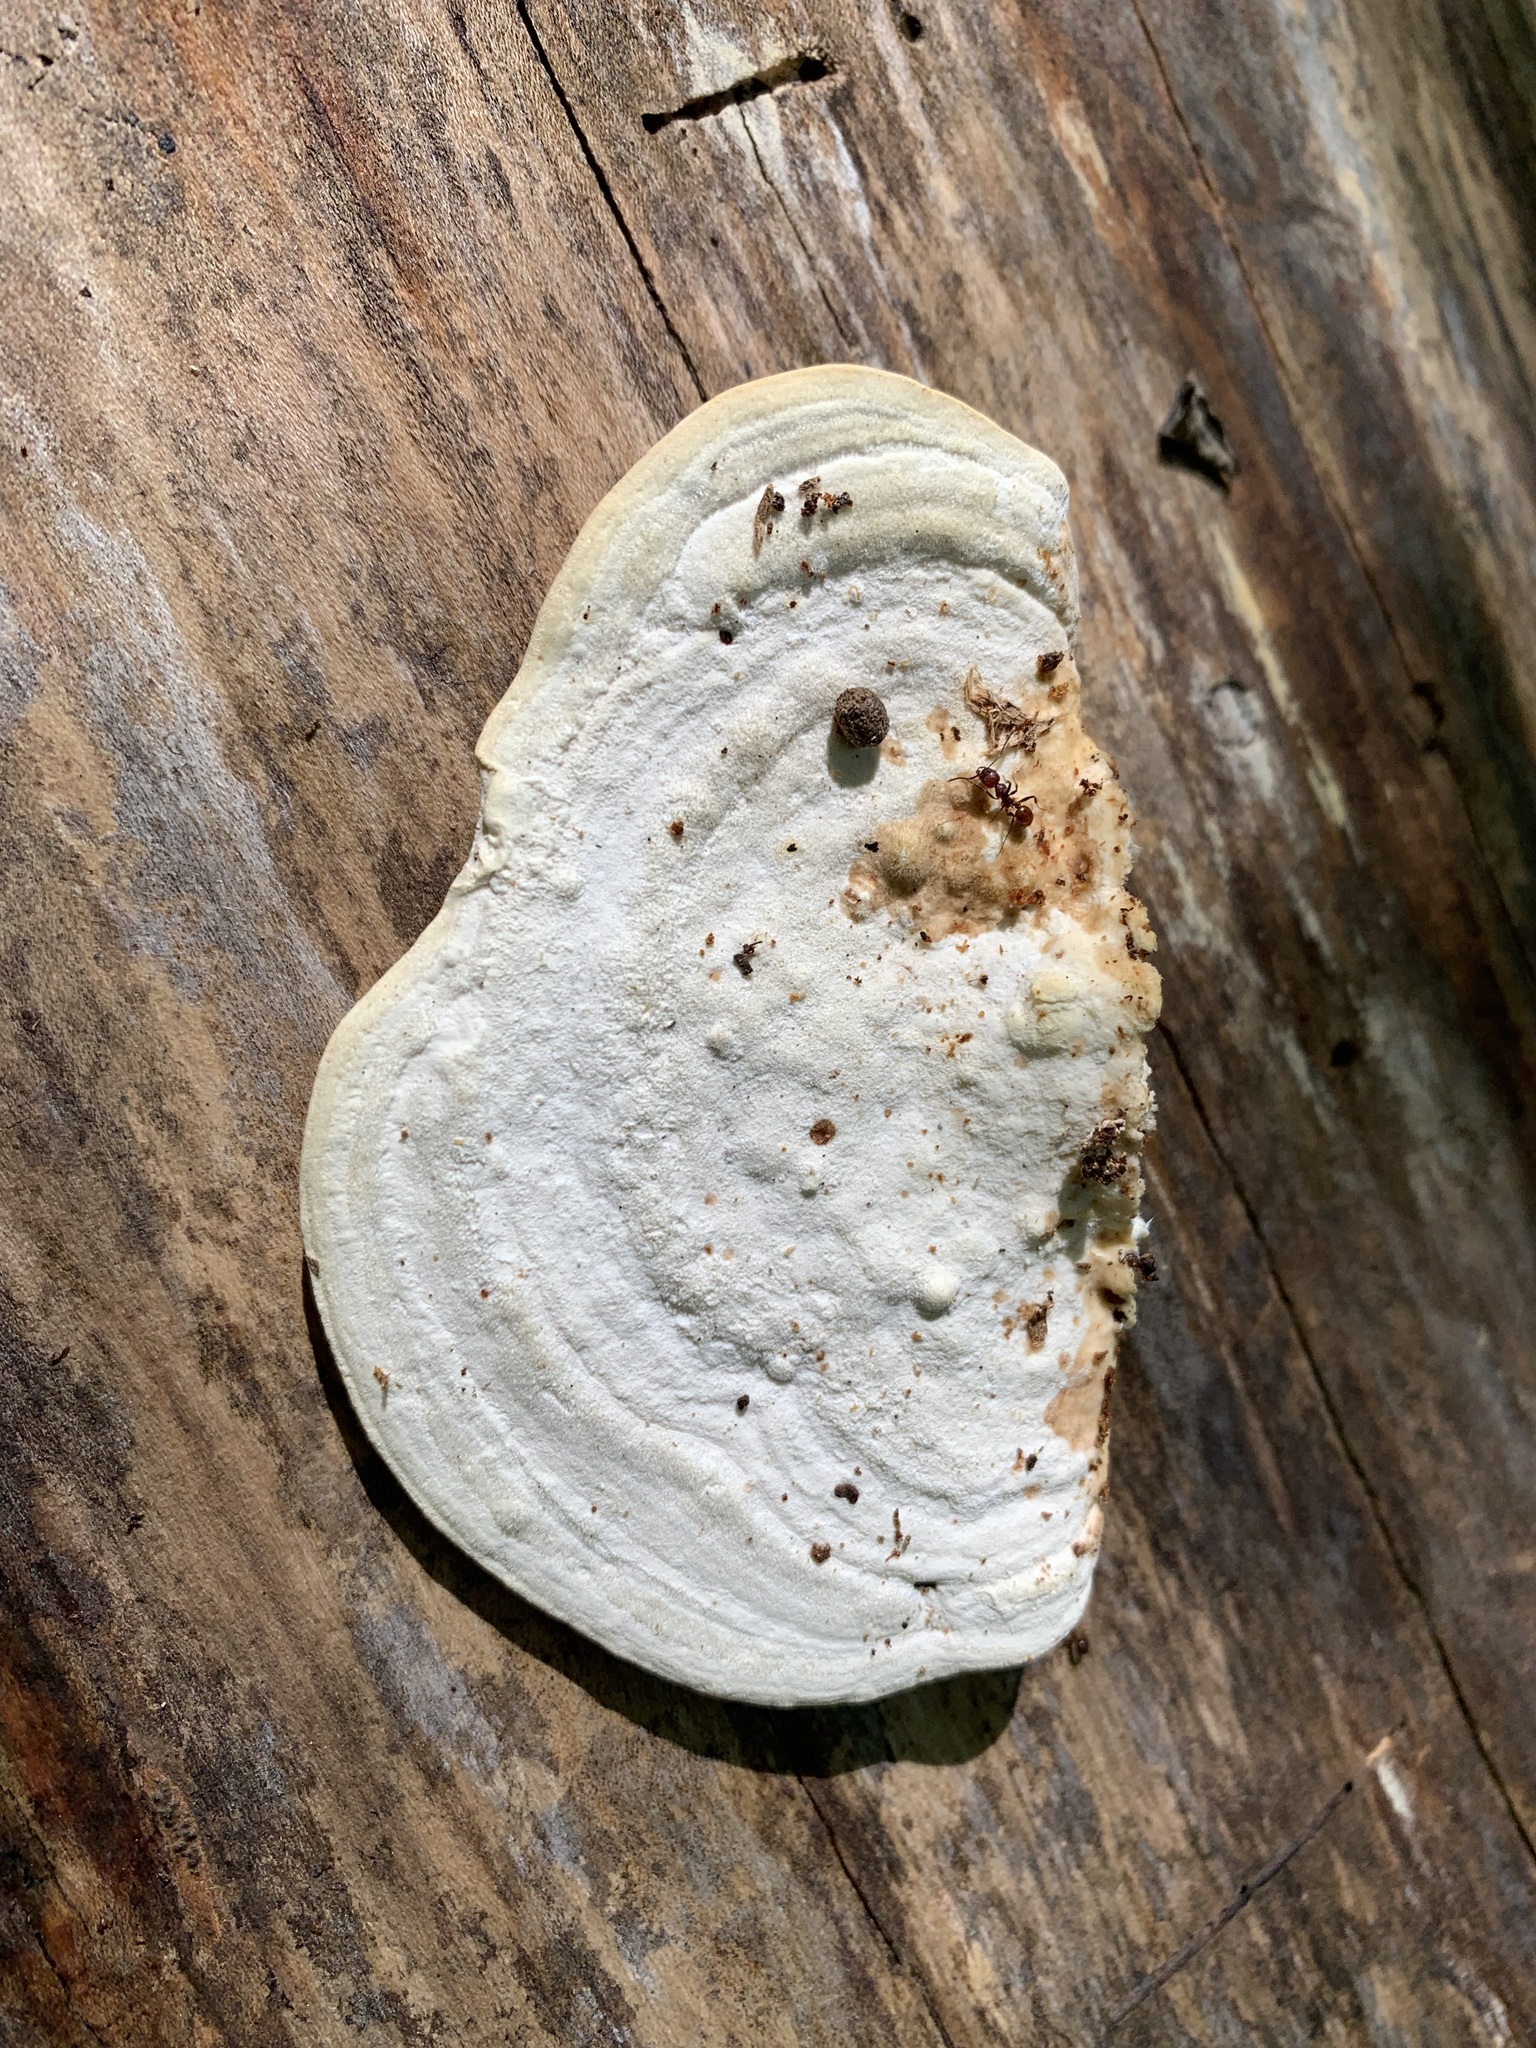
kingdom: Fungi
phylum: Basidiomycota
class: Agaricomycetes
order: Polyporales
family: Polyporaceae
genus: Trametes
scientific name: Trametes gibbosa
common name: Lumpy bracket
